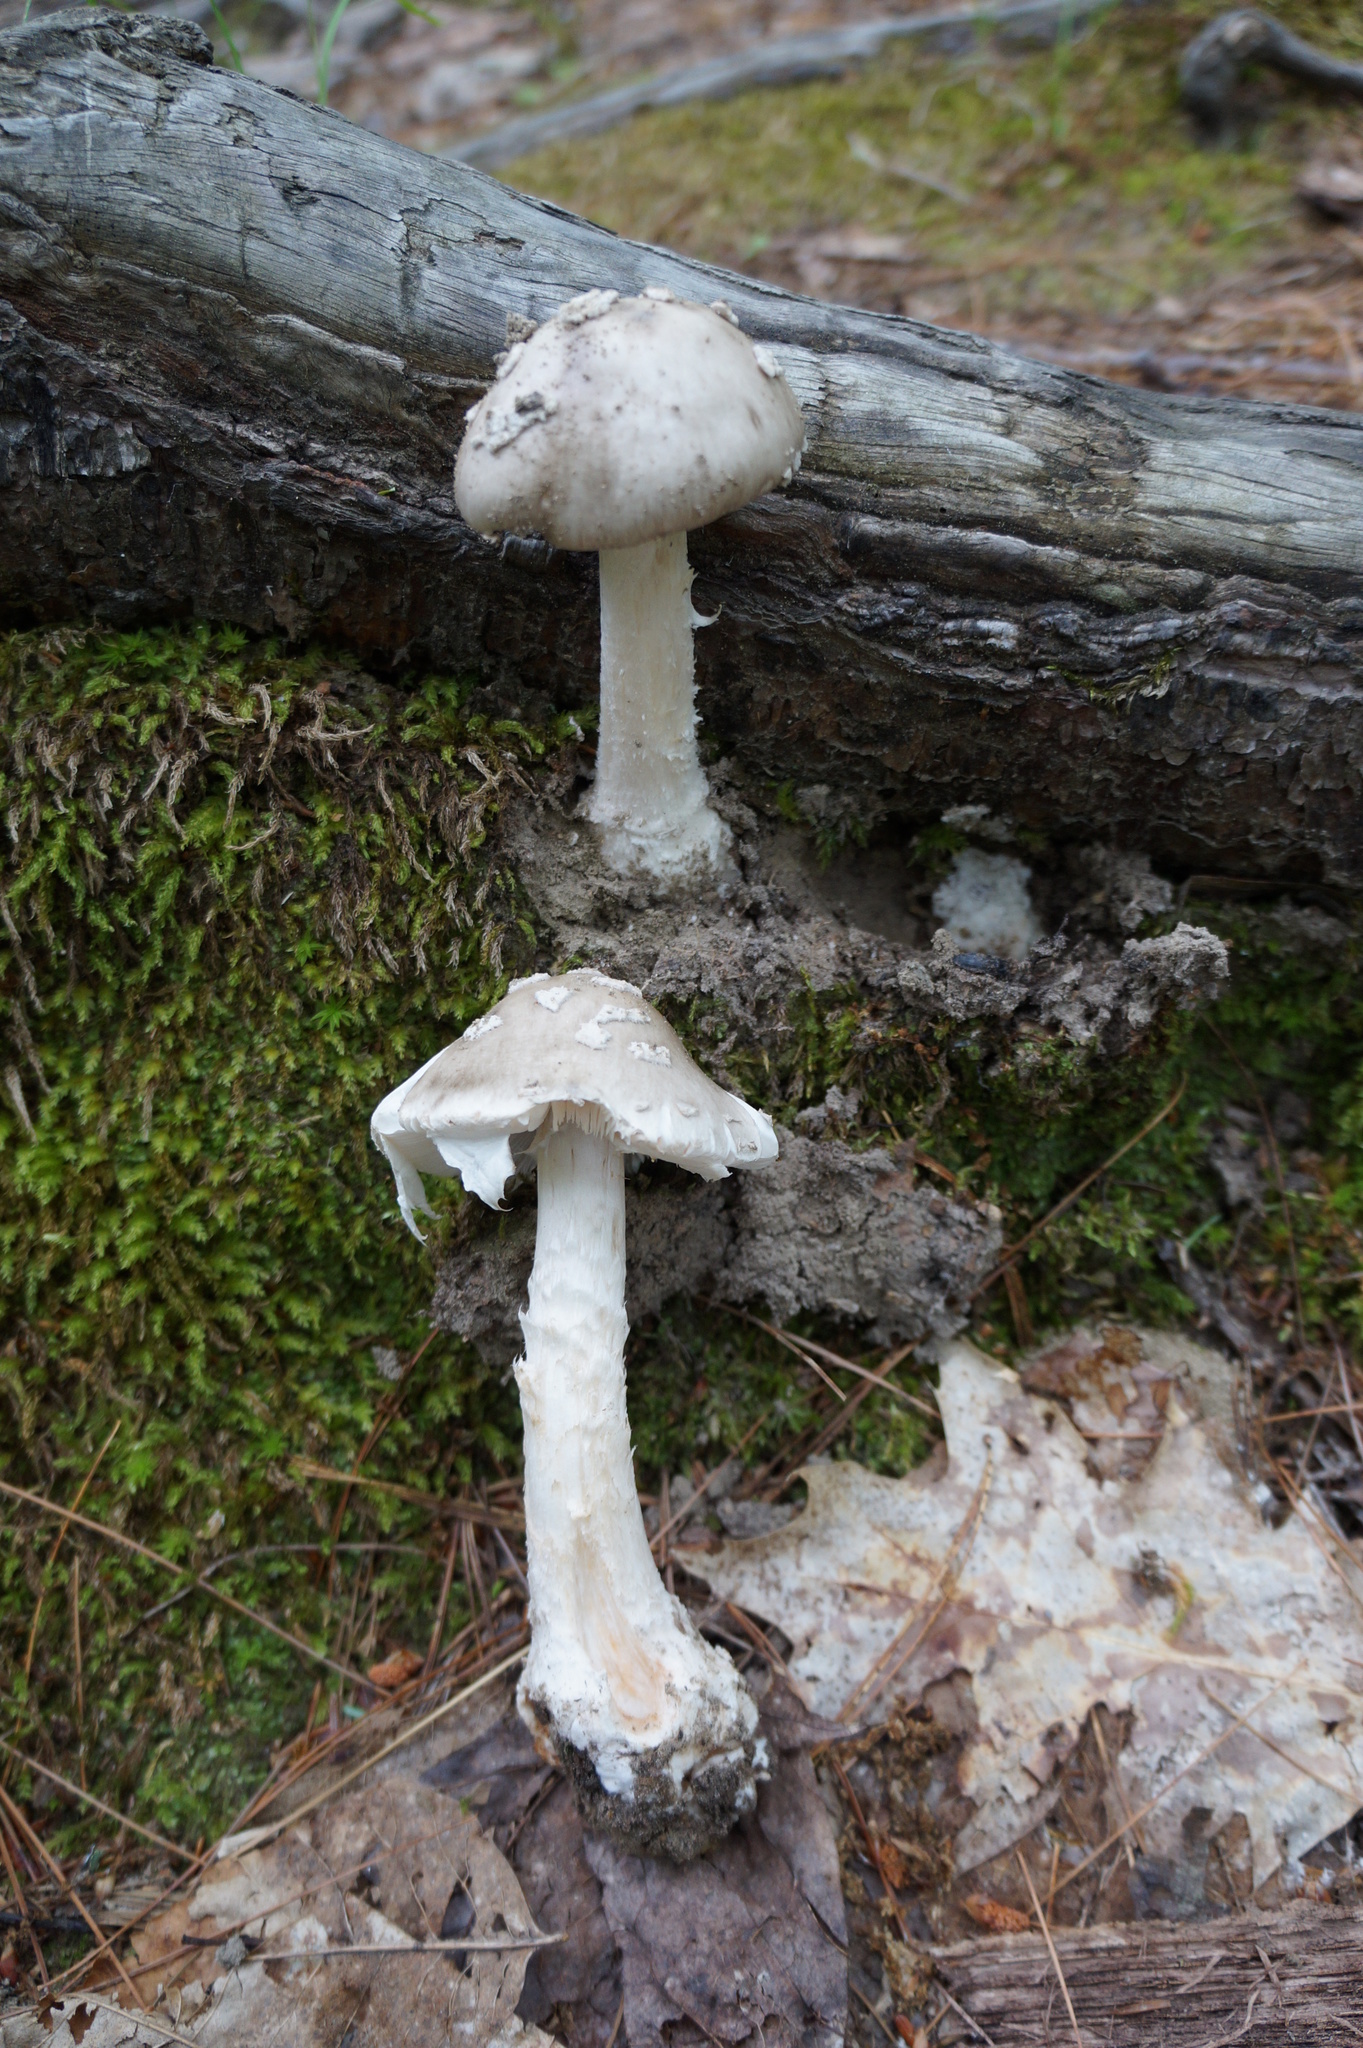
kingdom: Fungi
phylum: Basidiomycota
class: Agaricomycetes
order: Agaricales
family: Amanitaceae
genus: Amanita
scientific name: Amanita submaculata
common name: Ball gown amanita
